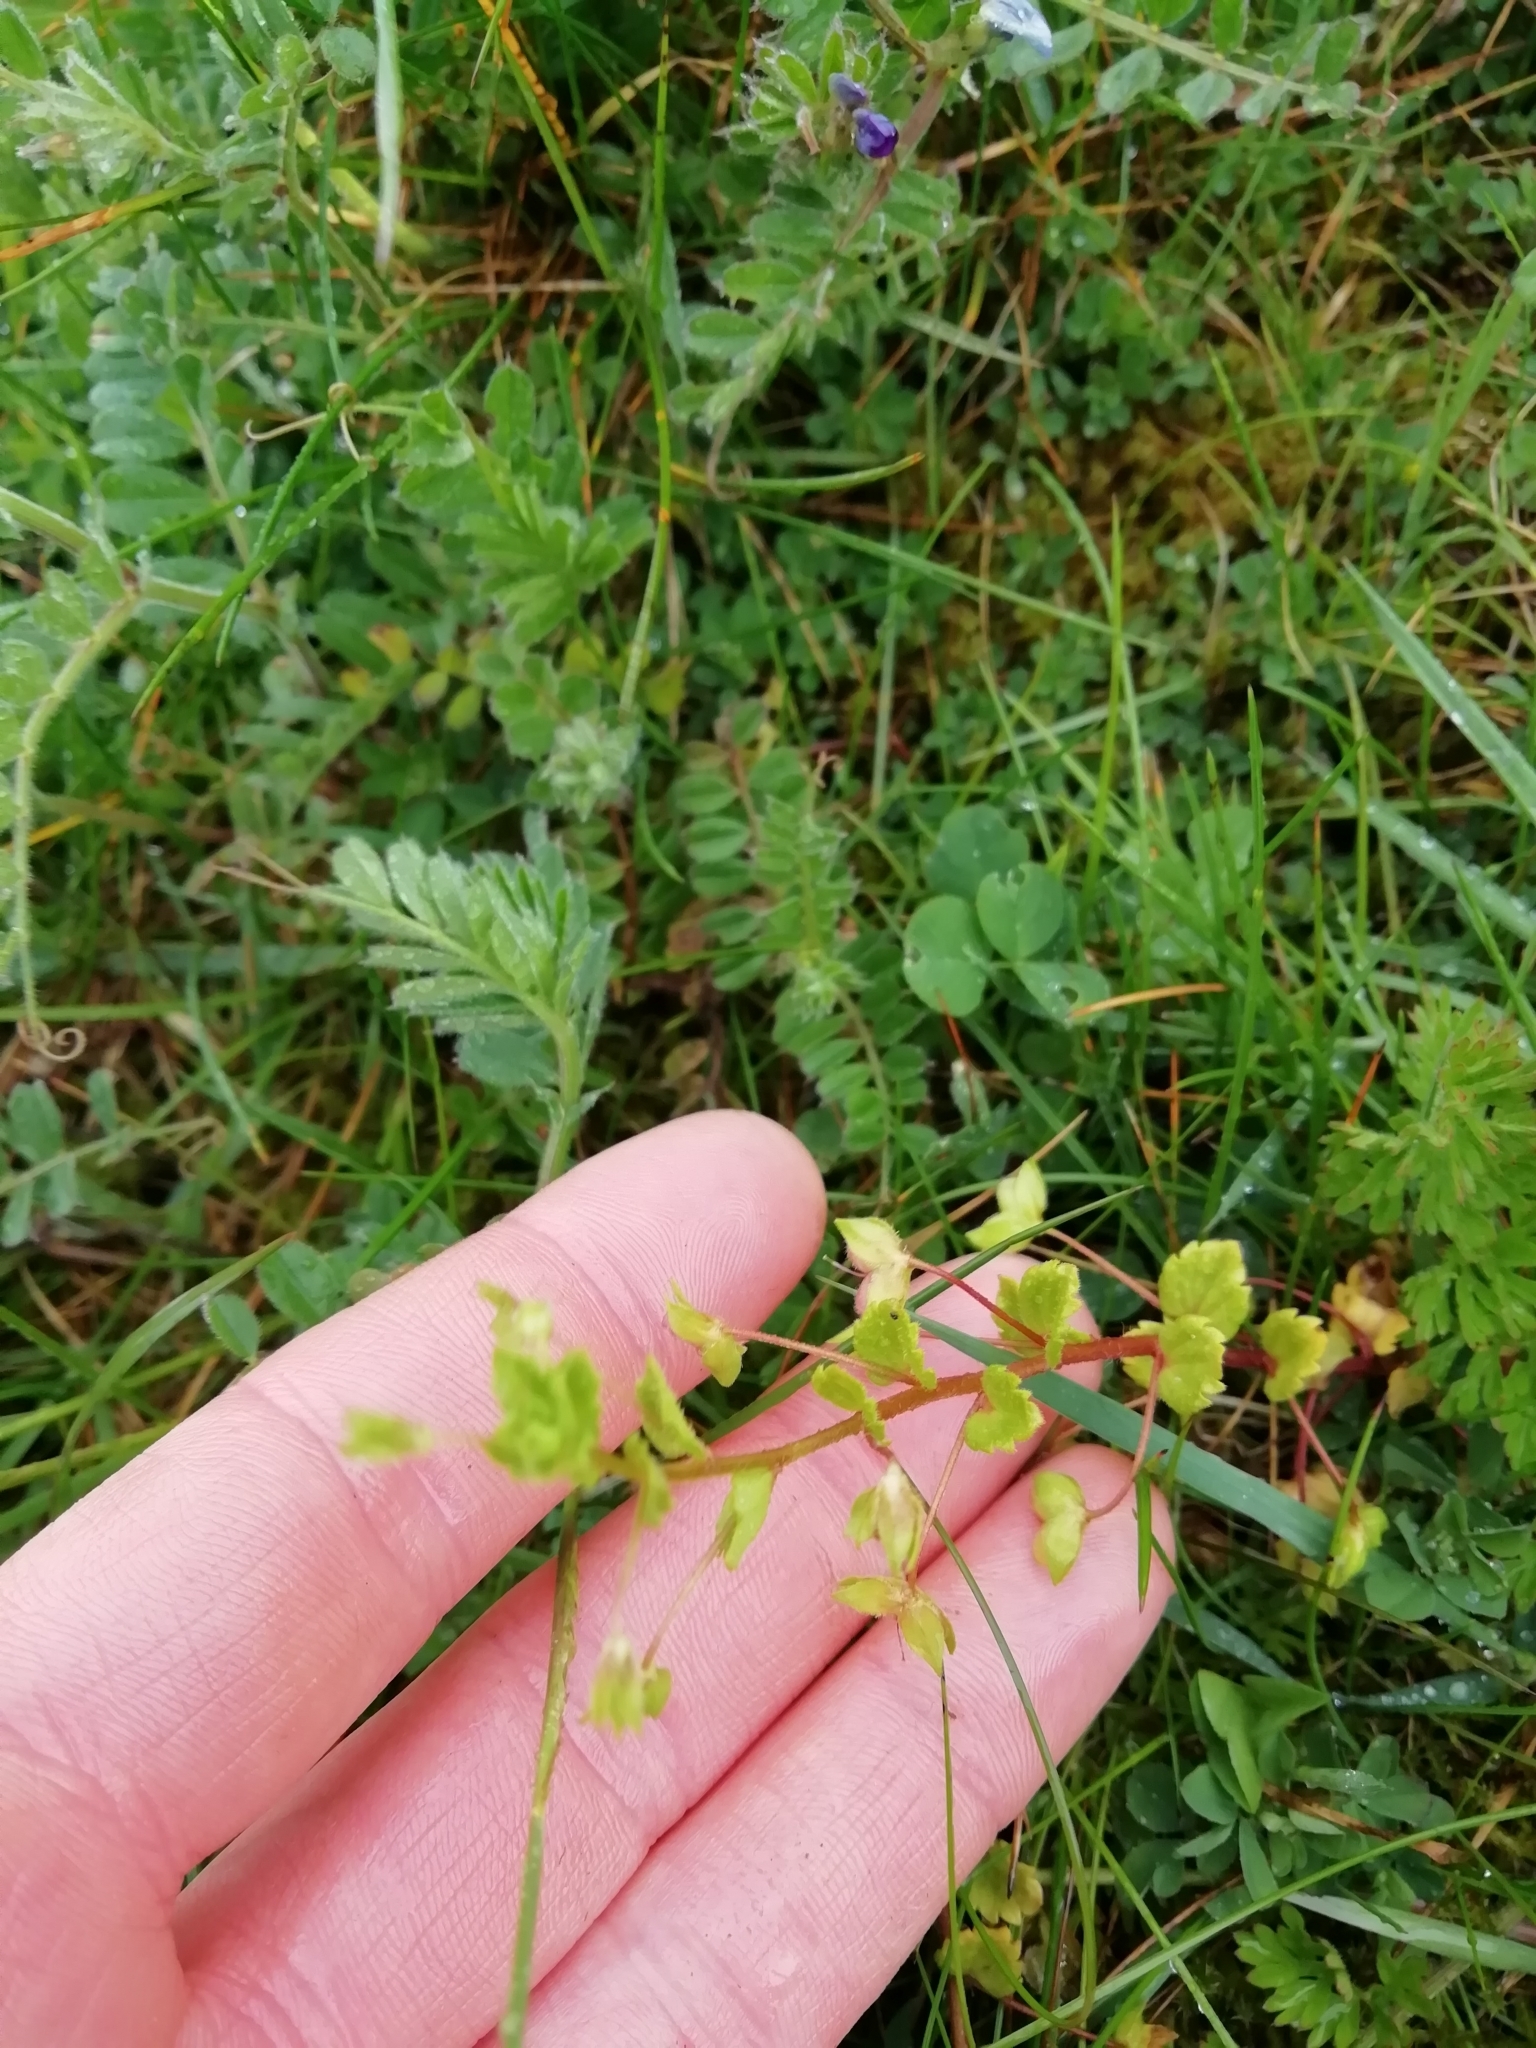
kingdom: Plantae
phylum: Tracheophyta
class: Magnoliopsida
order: Lamiales
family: Plantaginaceae
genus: Veronica
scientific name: Veronica persica
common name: Common field-speedwell
